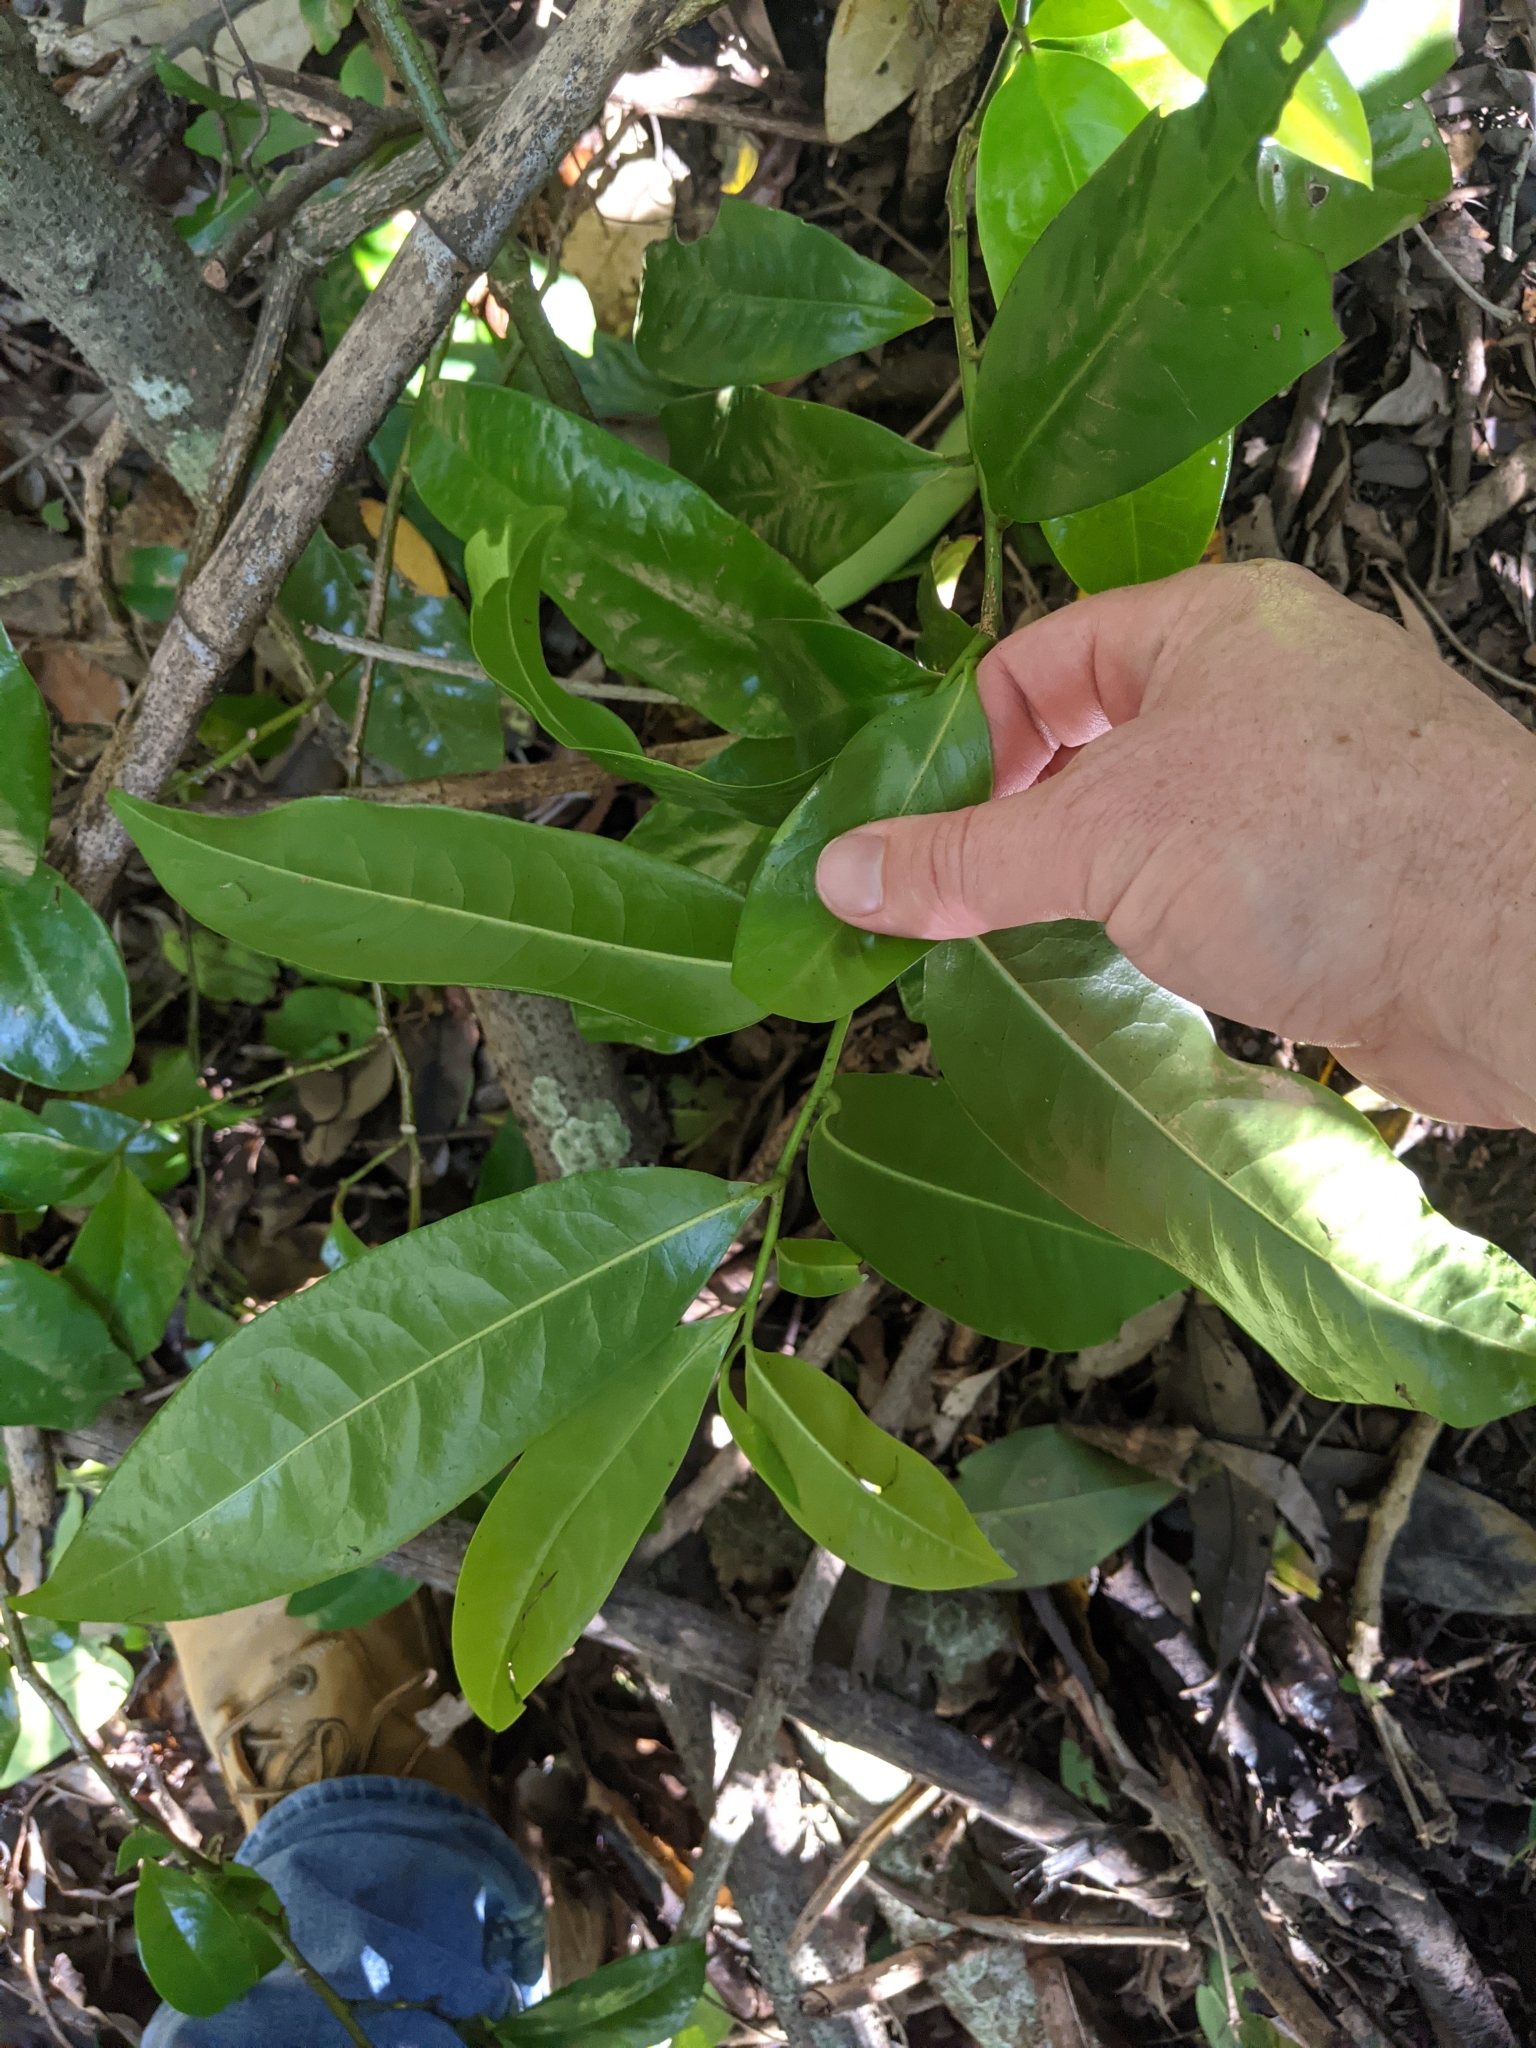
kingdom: Plantae
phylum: Tracheophyta
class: Magnoliopsida
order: Magnoliales
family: Eupomatiaceae
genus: Eupomatia
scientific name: Eupomatia laurina
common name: Bolwarra
